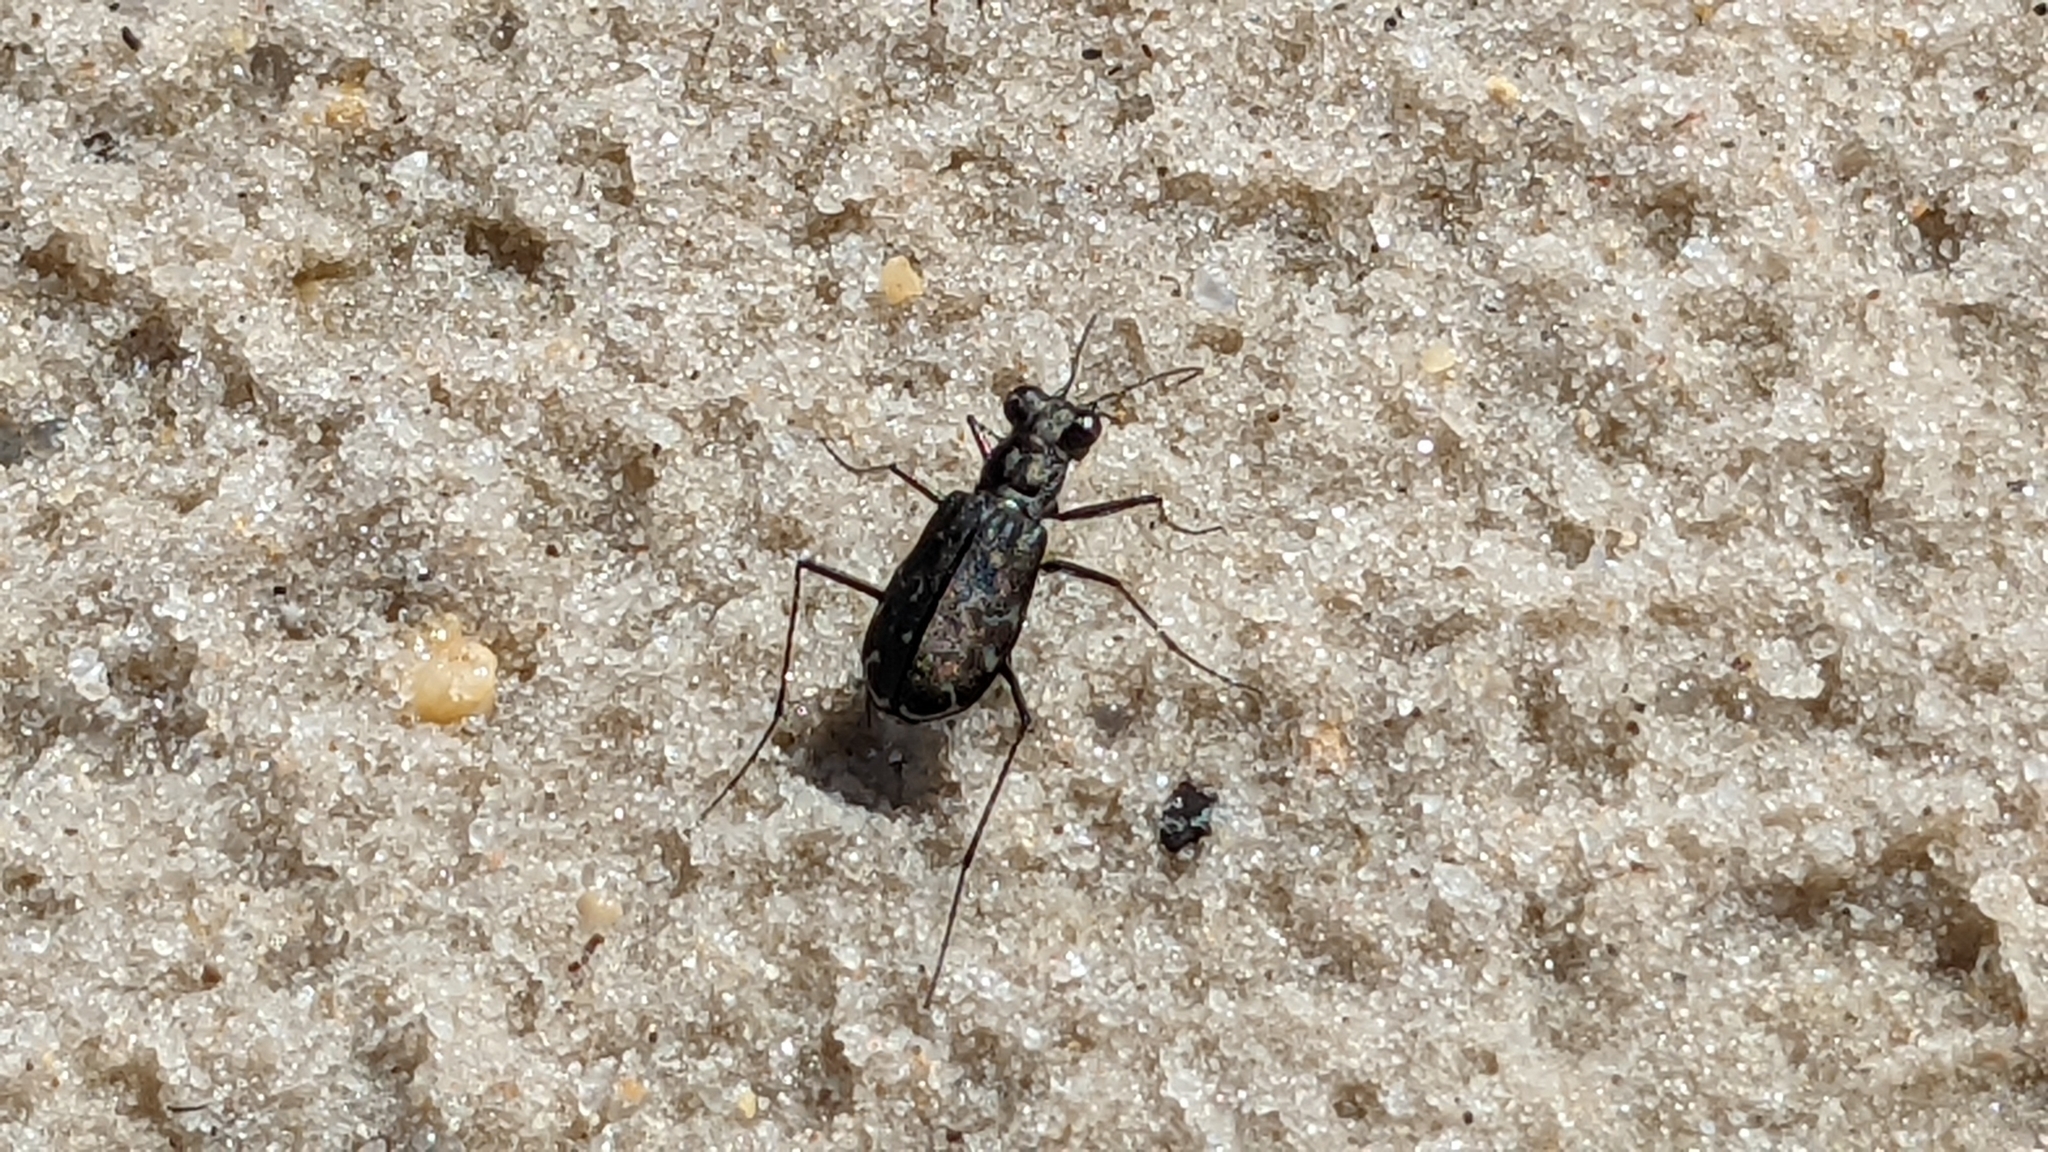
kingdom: Animalia
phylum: Arthropoda
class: Insecta
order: Coleoptera
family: Carabidae
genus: Cicindela
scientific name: Cicindela trifasciata
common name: Mudflat tiger beetle
